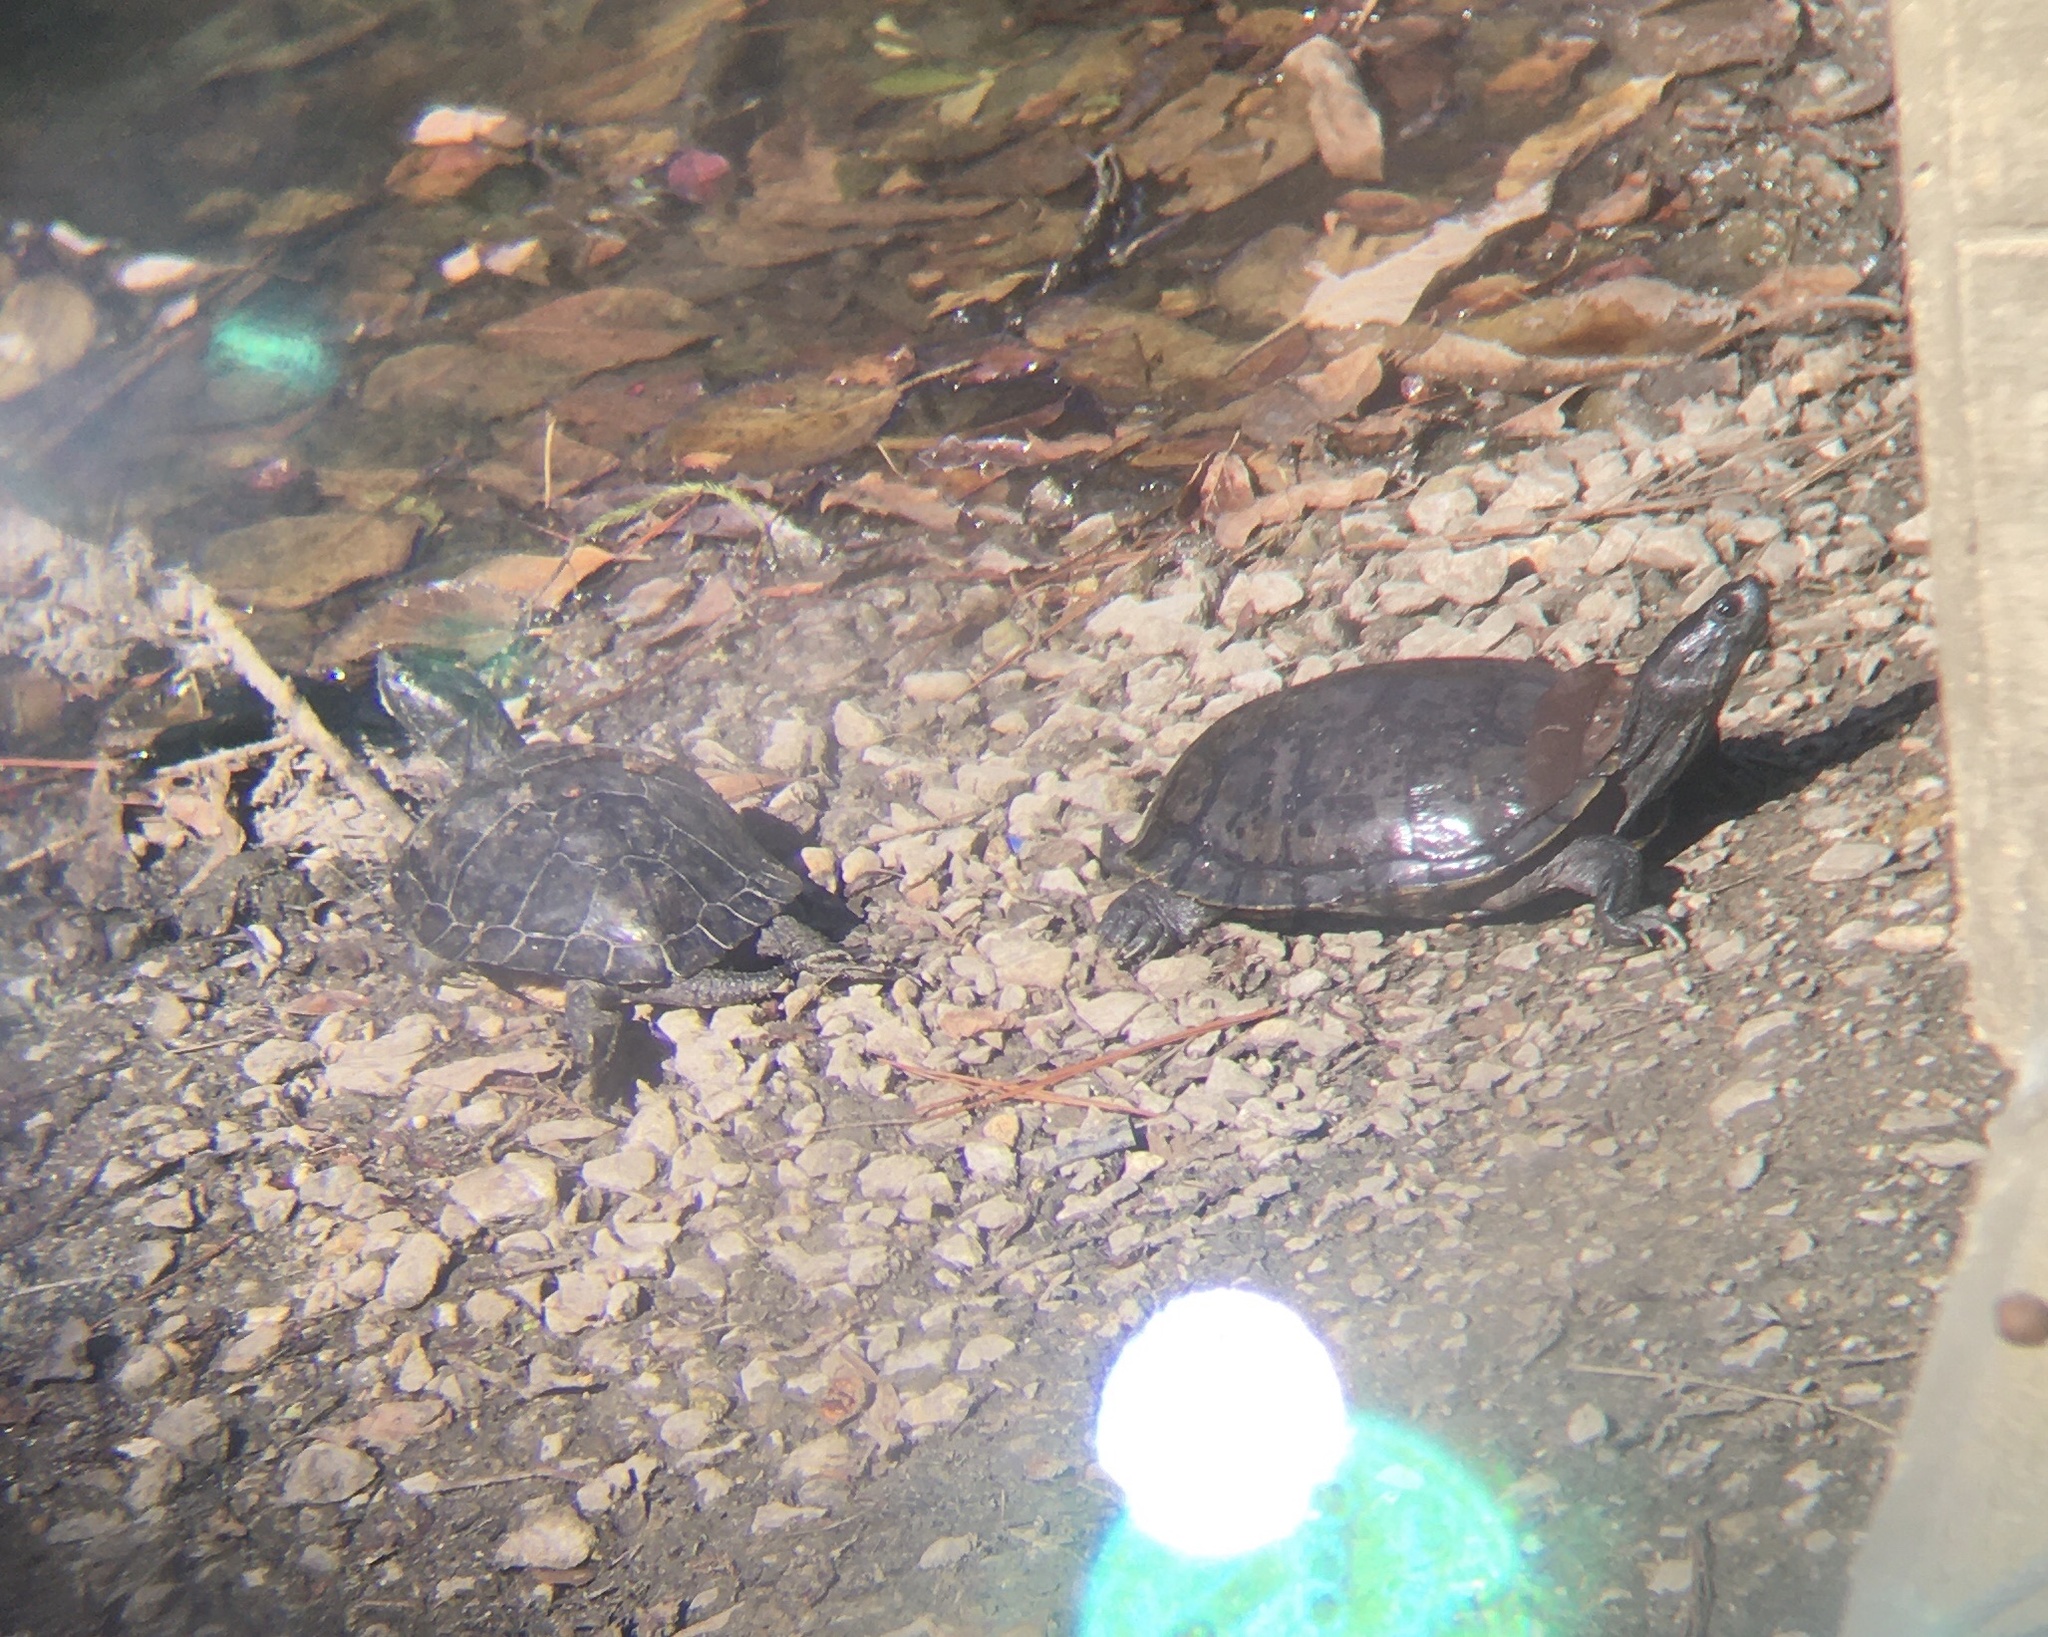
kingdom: Animalia
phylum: Chordata
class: Testudines
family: Emydidae
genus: Trachemys
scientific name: Trachemys scripta
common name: Slider
